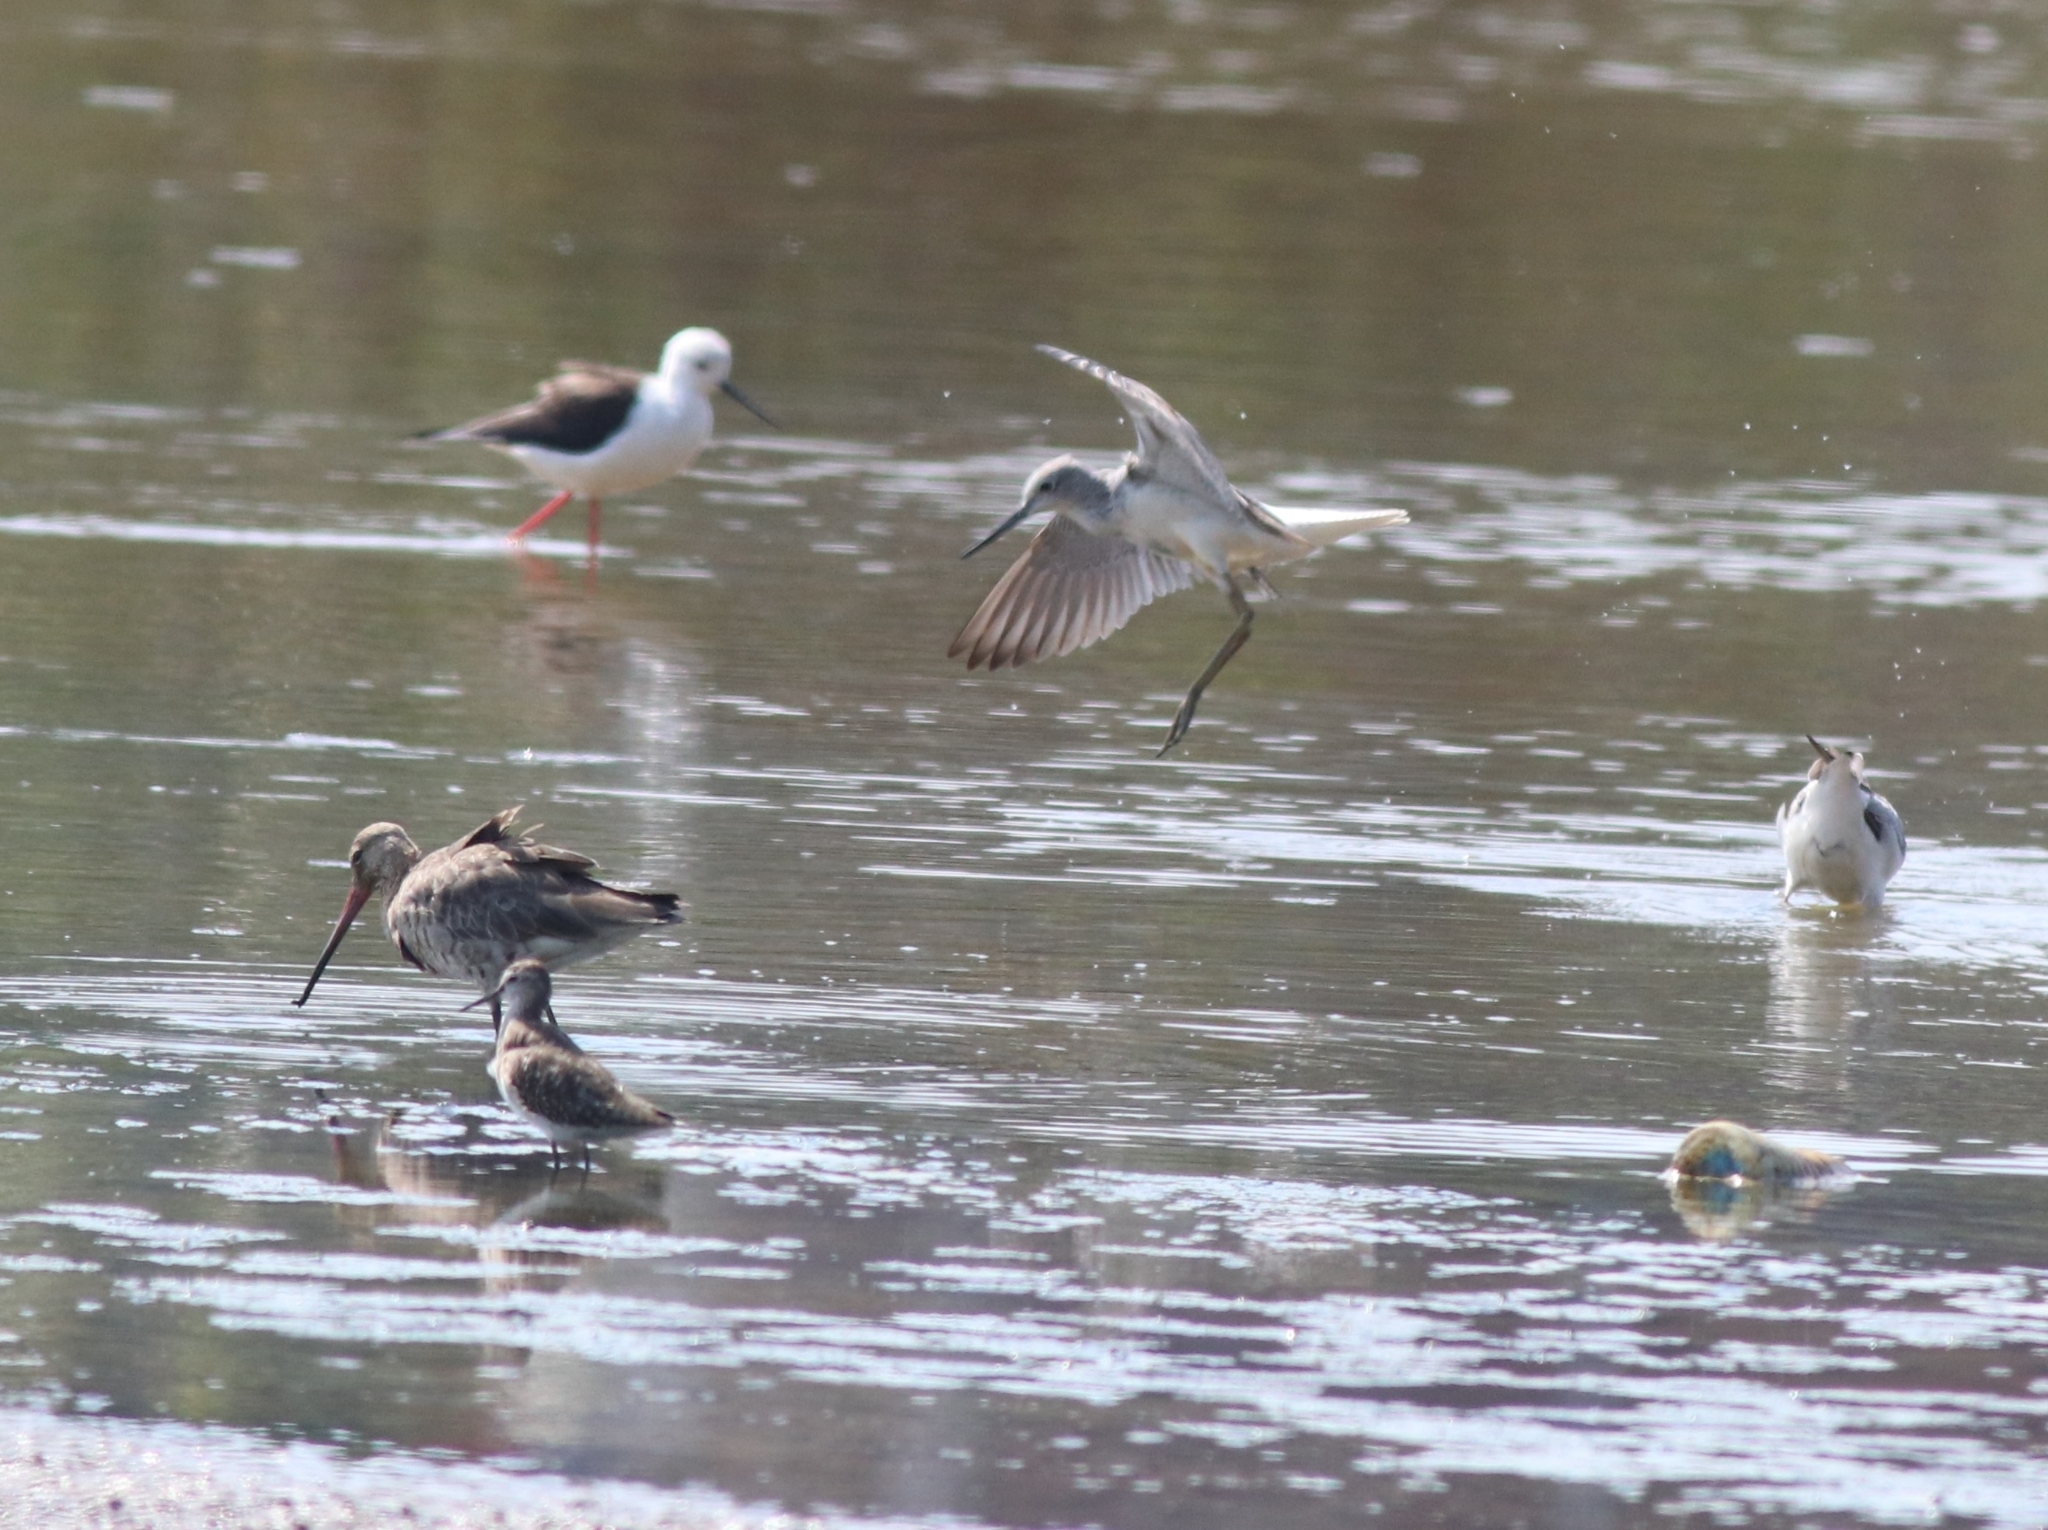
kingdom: Animalia
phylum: Chordata
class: Aves
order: Charadriiformes
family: Scolopacidae
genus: Limosa
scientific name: Limosa limosa
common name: Black-tailed godwit
